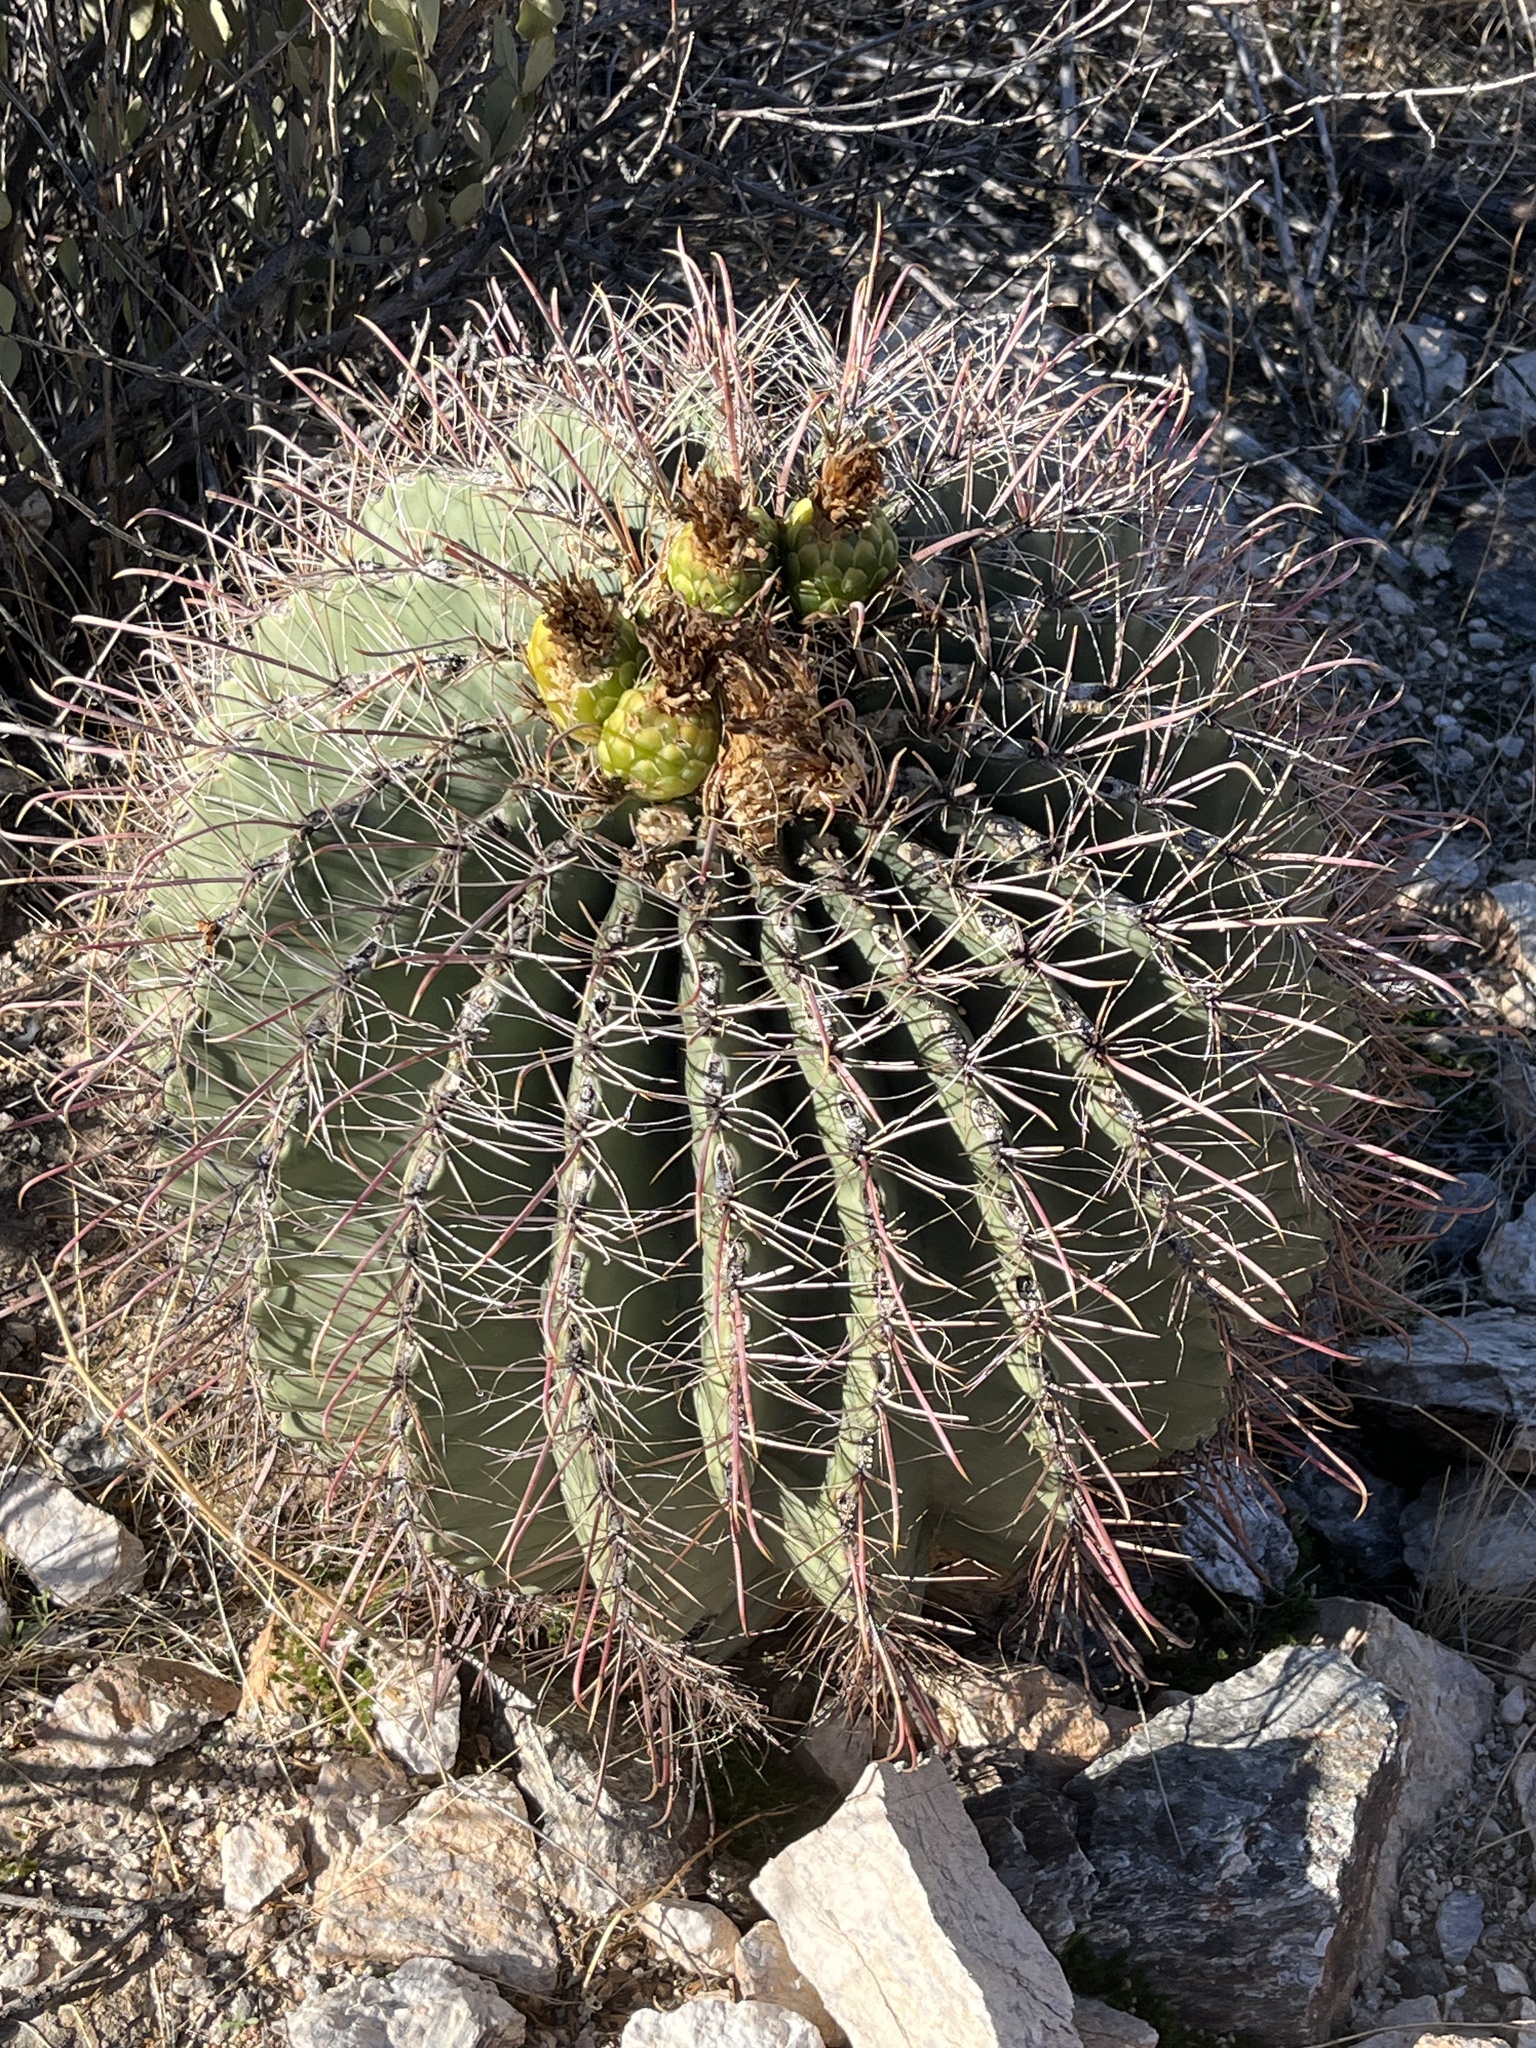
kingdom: Plantae
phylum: Tracheophyta
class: Magnoliopsida
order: Caryophyllales
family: Cactaceae
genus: Ferocactus
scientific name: Ferocactus wislizeni
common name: Candy barrel cactus
